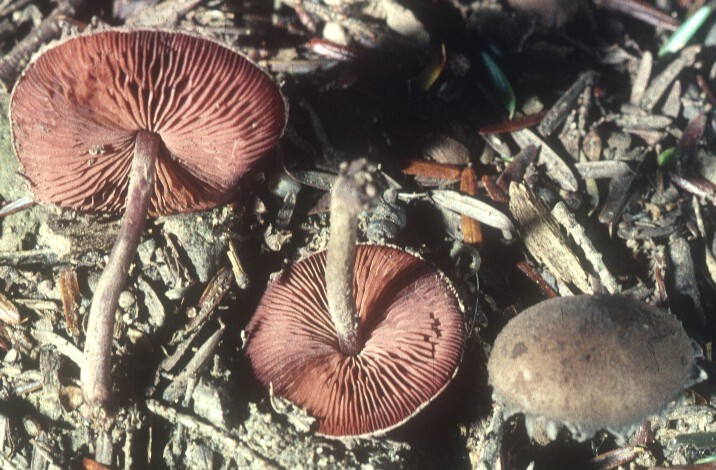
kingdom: Fungi
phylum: Basidiomycota
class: Agaricomycetes
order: Agaricales
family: Agaricaceae
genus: Melanophyllum
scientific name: Melanophyllum haematospermum
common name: Redspored dapperling
